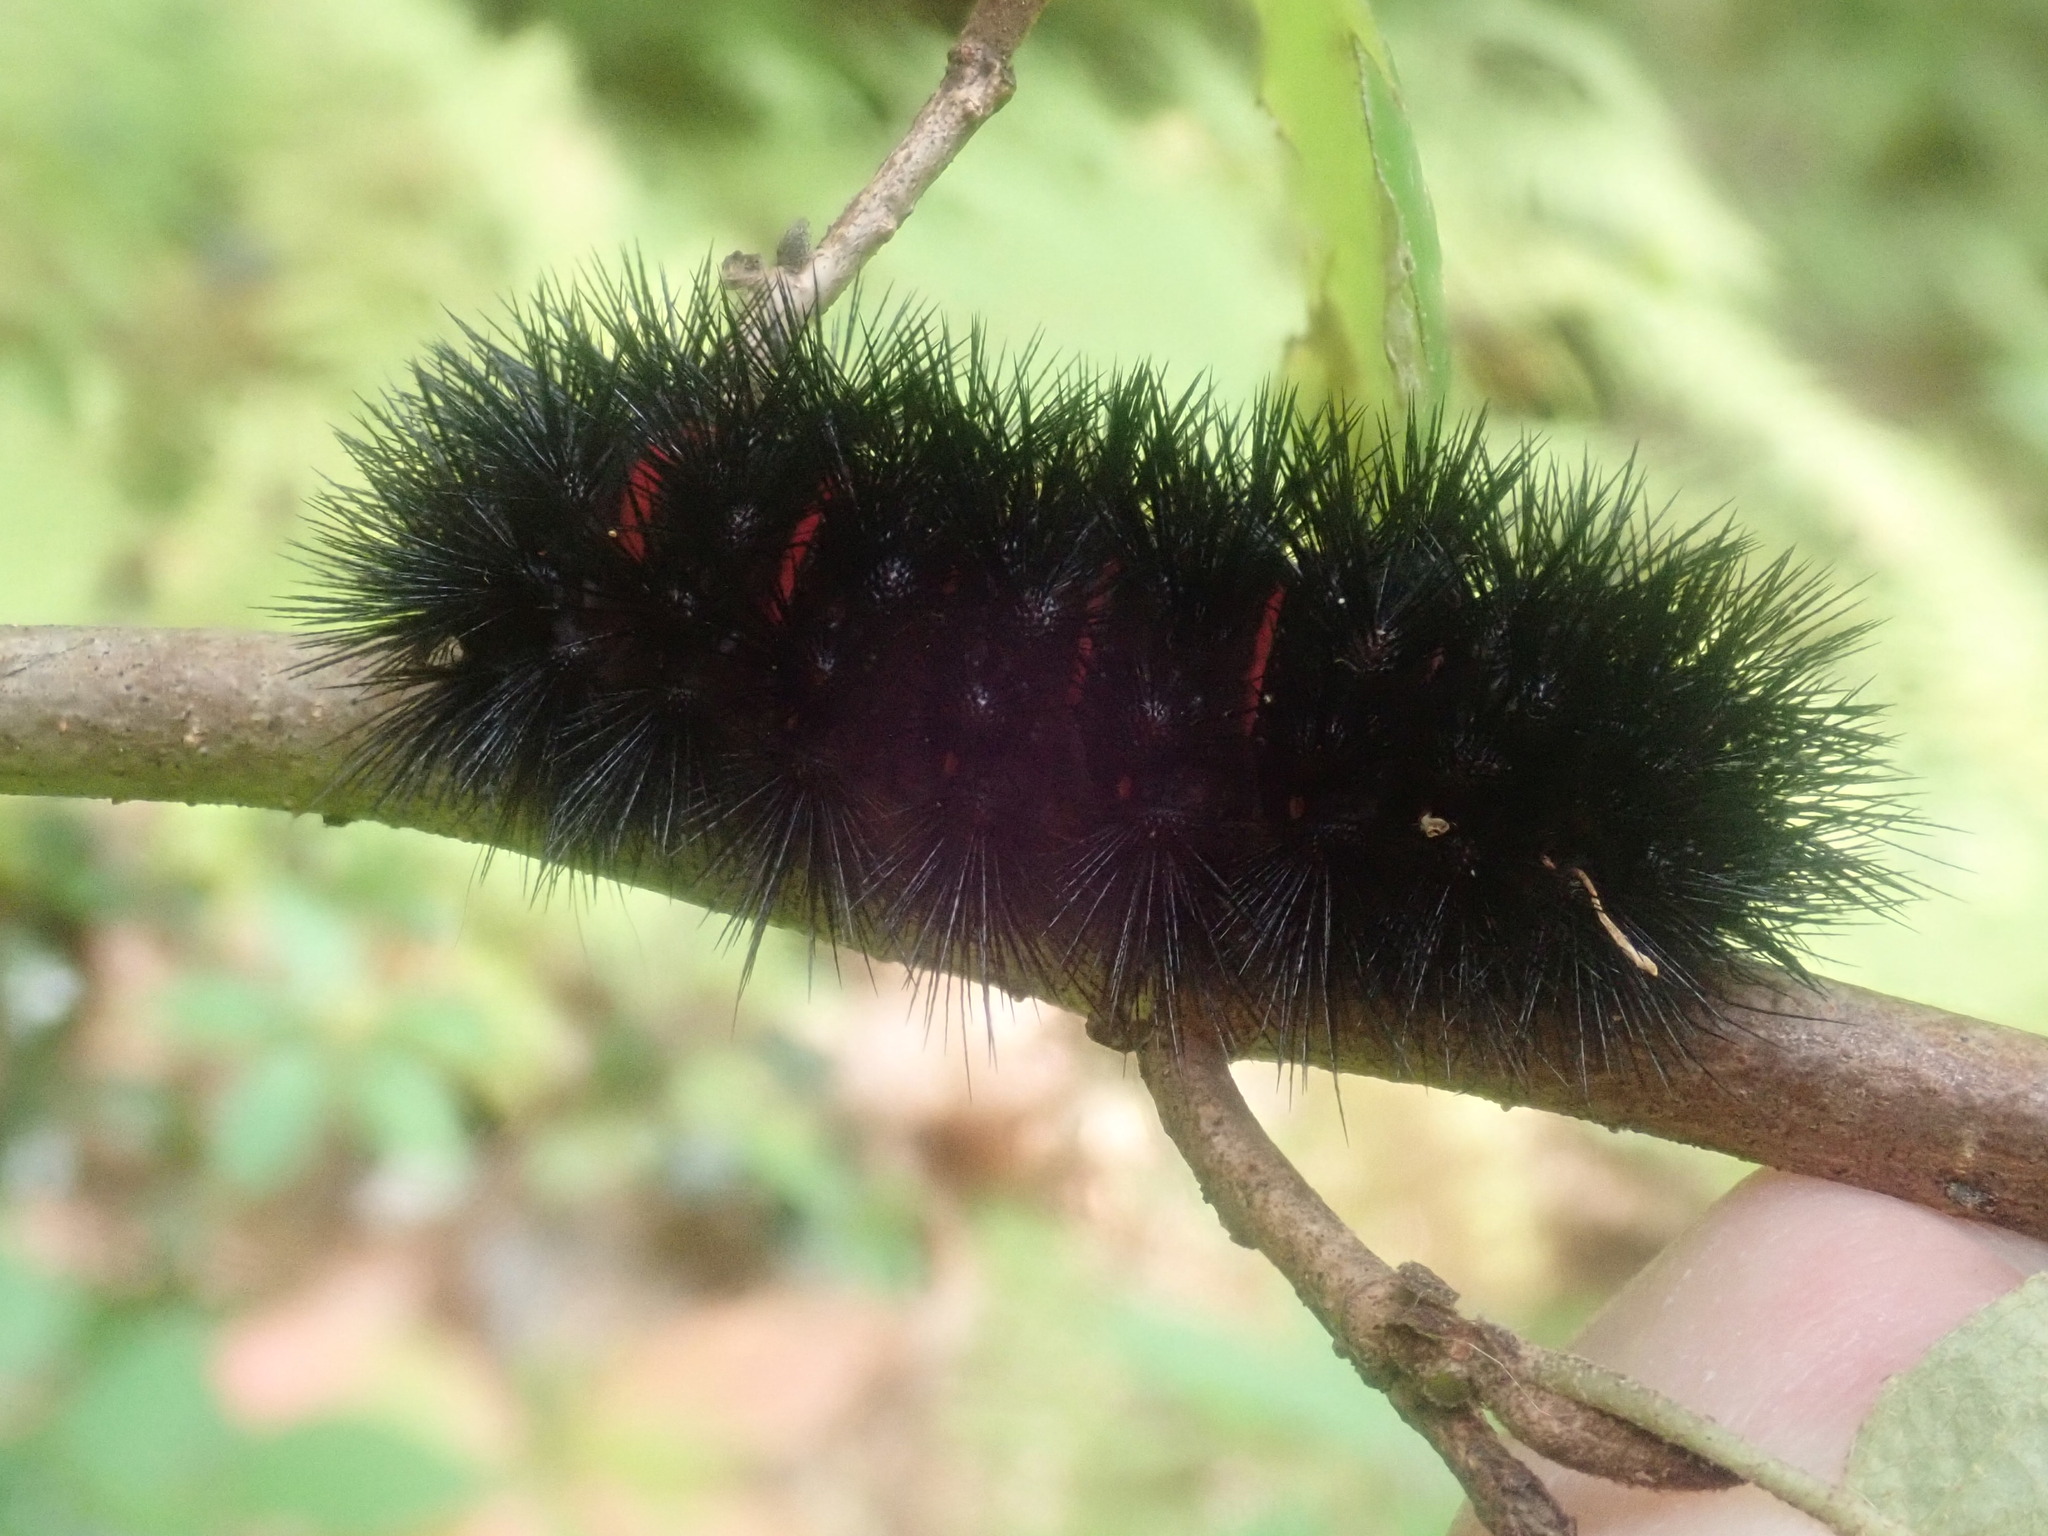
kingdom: Animalia
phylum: Arthropoda
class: Insecta
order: Lepidoptera
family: Erebidae
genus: Hypercompe
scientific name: Hypercompe scribonia
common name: Giant leopard moth
